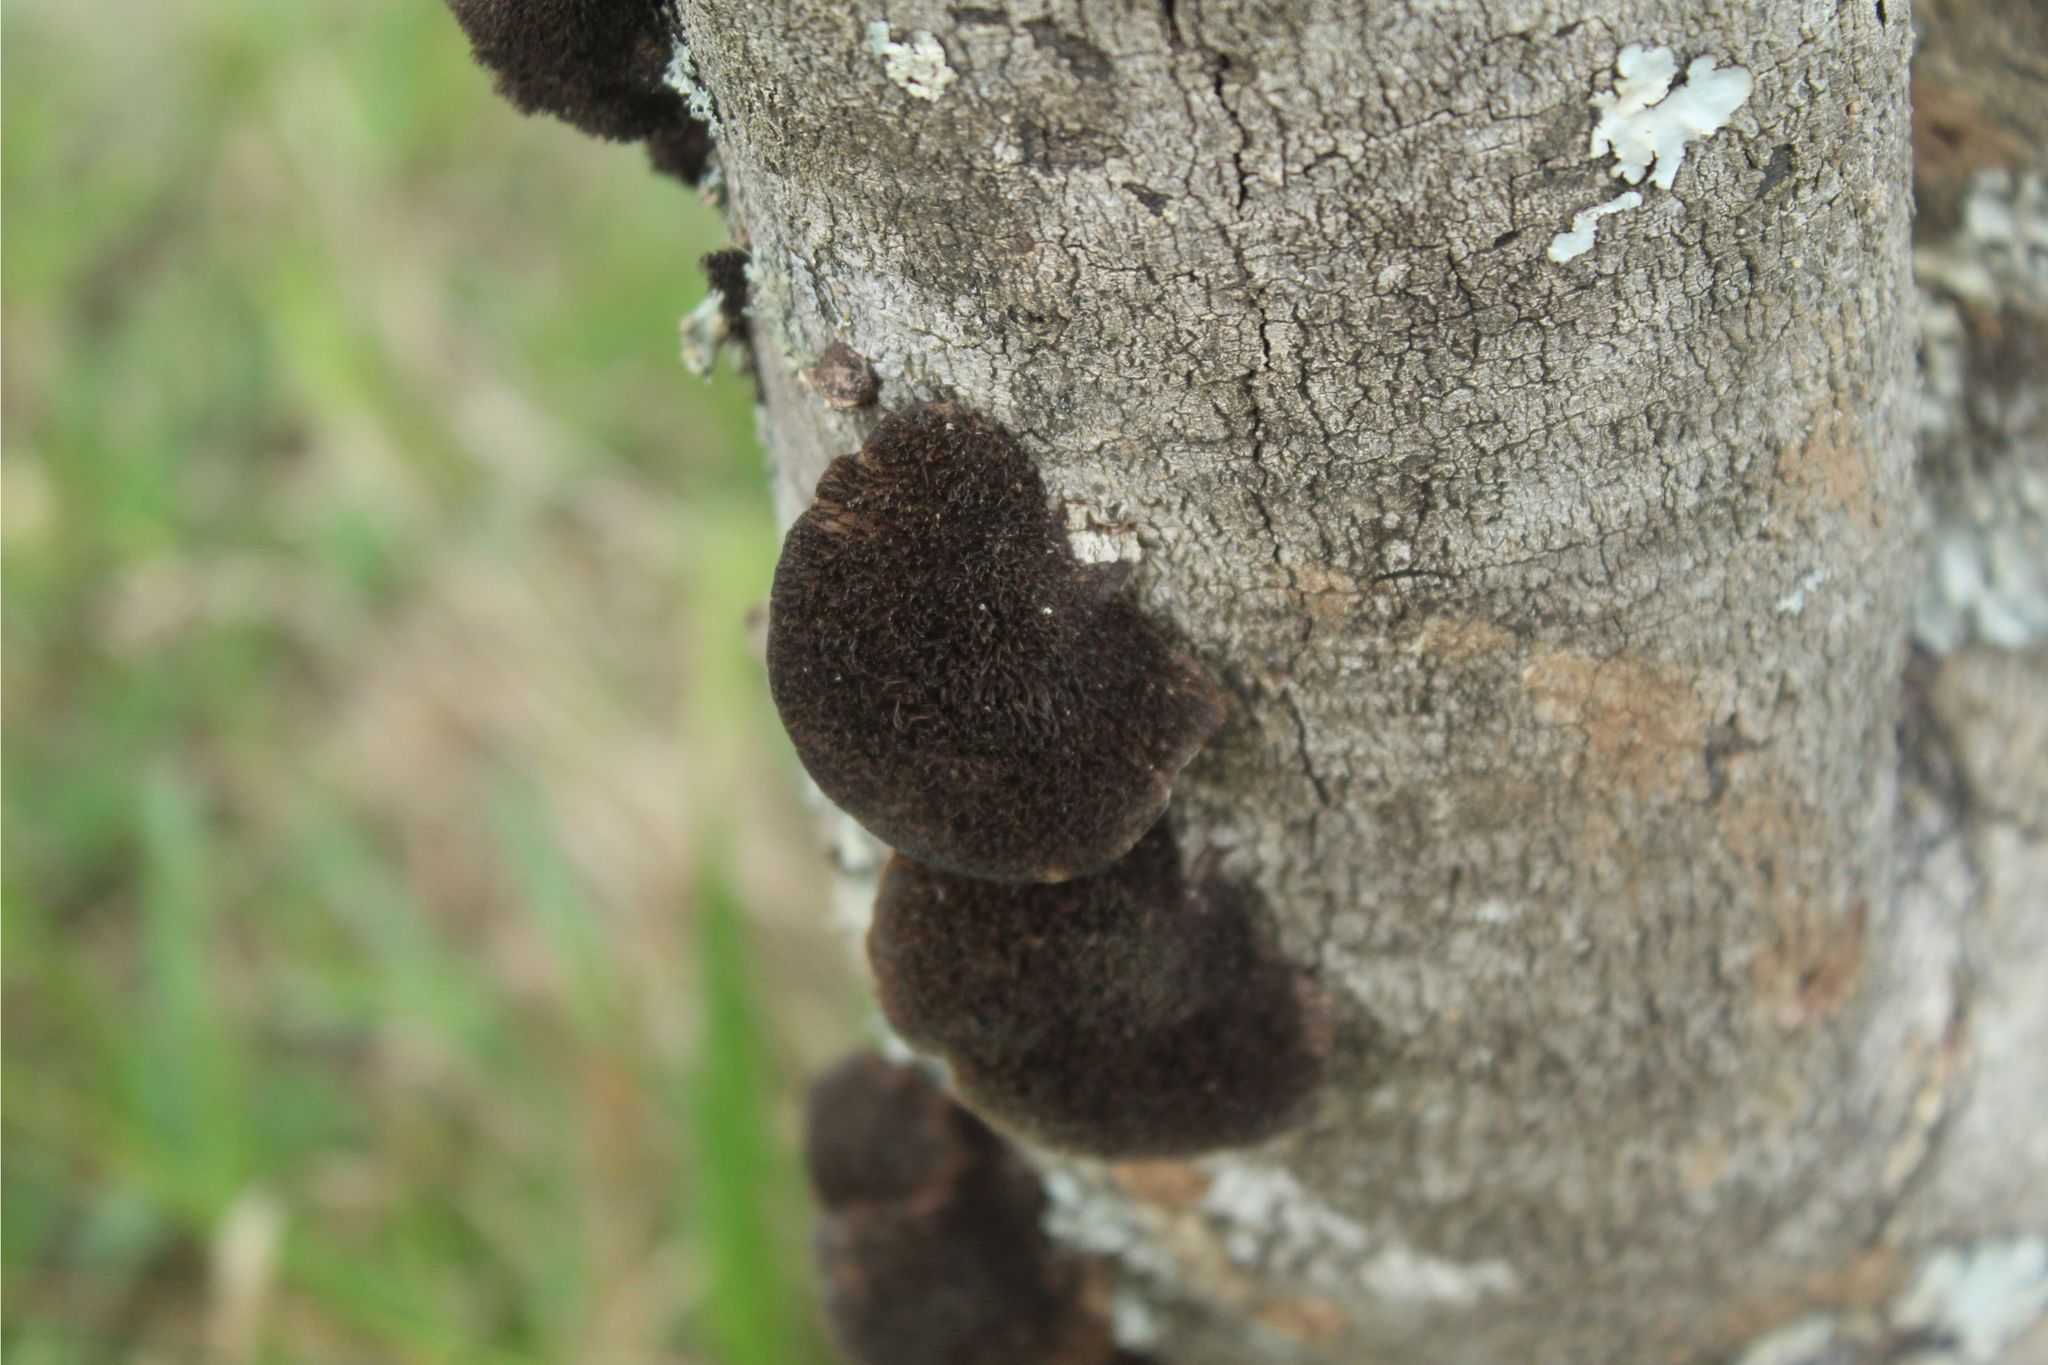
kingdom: Fungi
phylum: Basidiomycota
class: Agaricomycetes
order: Polyporales
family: Cerrenaceae
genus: Cerrena
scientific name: Cerrena hydnoides
